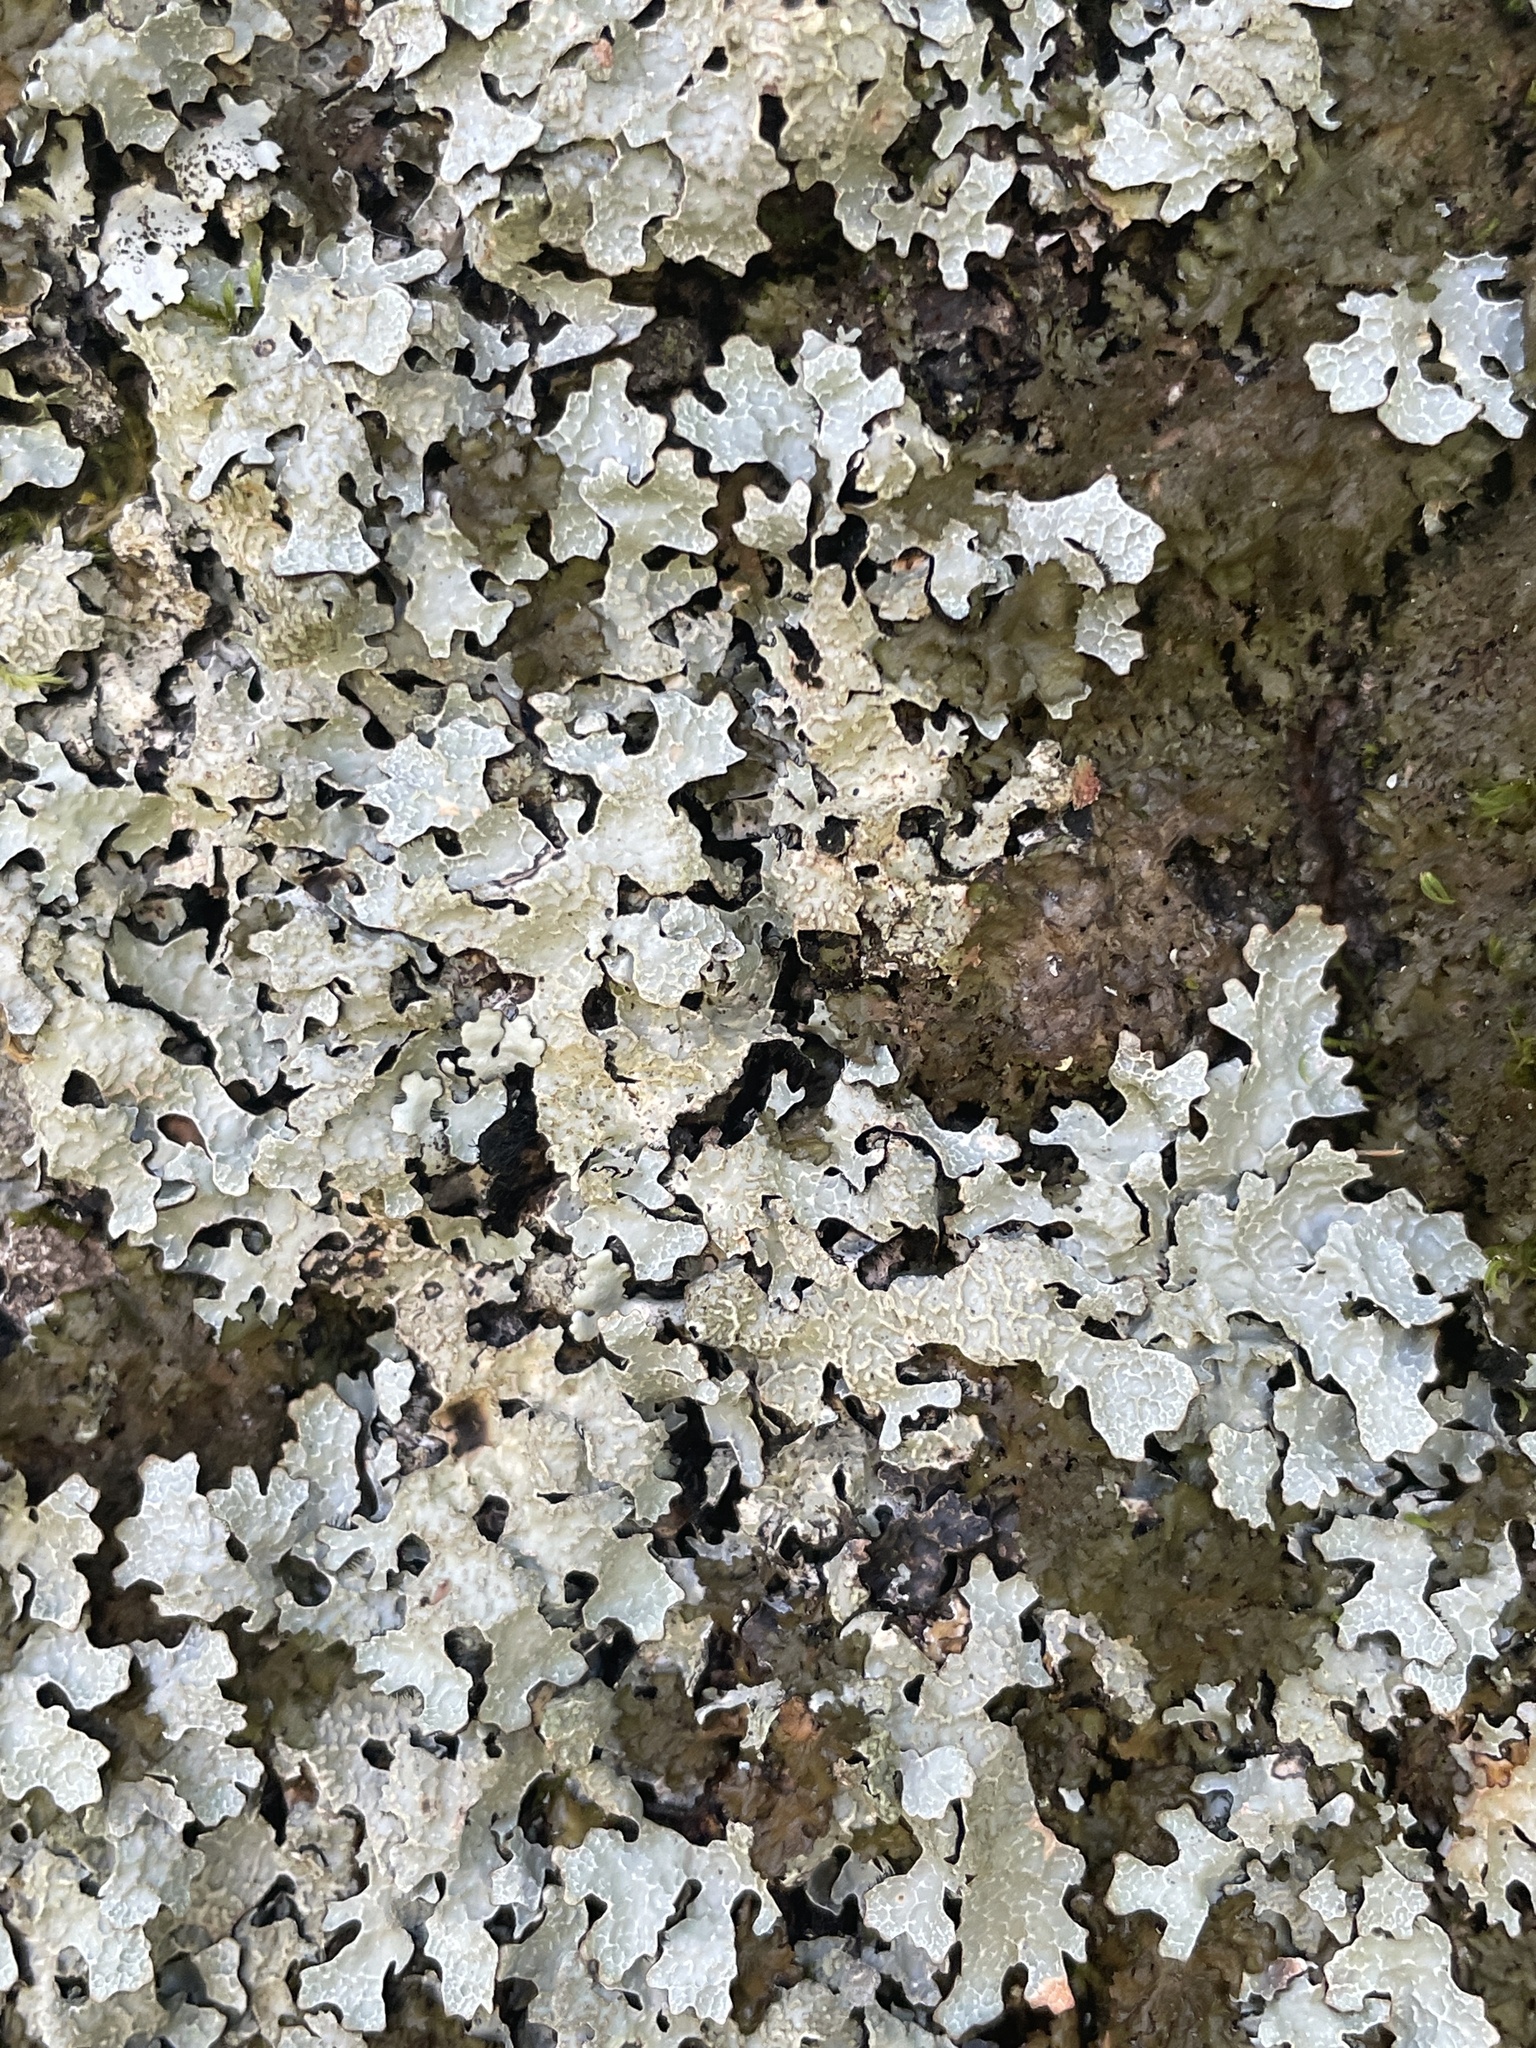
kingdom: Fungi
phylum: Ascomycota
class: Lecanoromycetes
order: Lecanorales
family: Parmeliaceae
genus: Parmelia
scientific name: Parmelia sulcata
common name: Netted shield lichen
